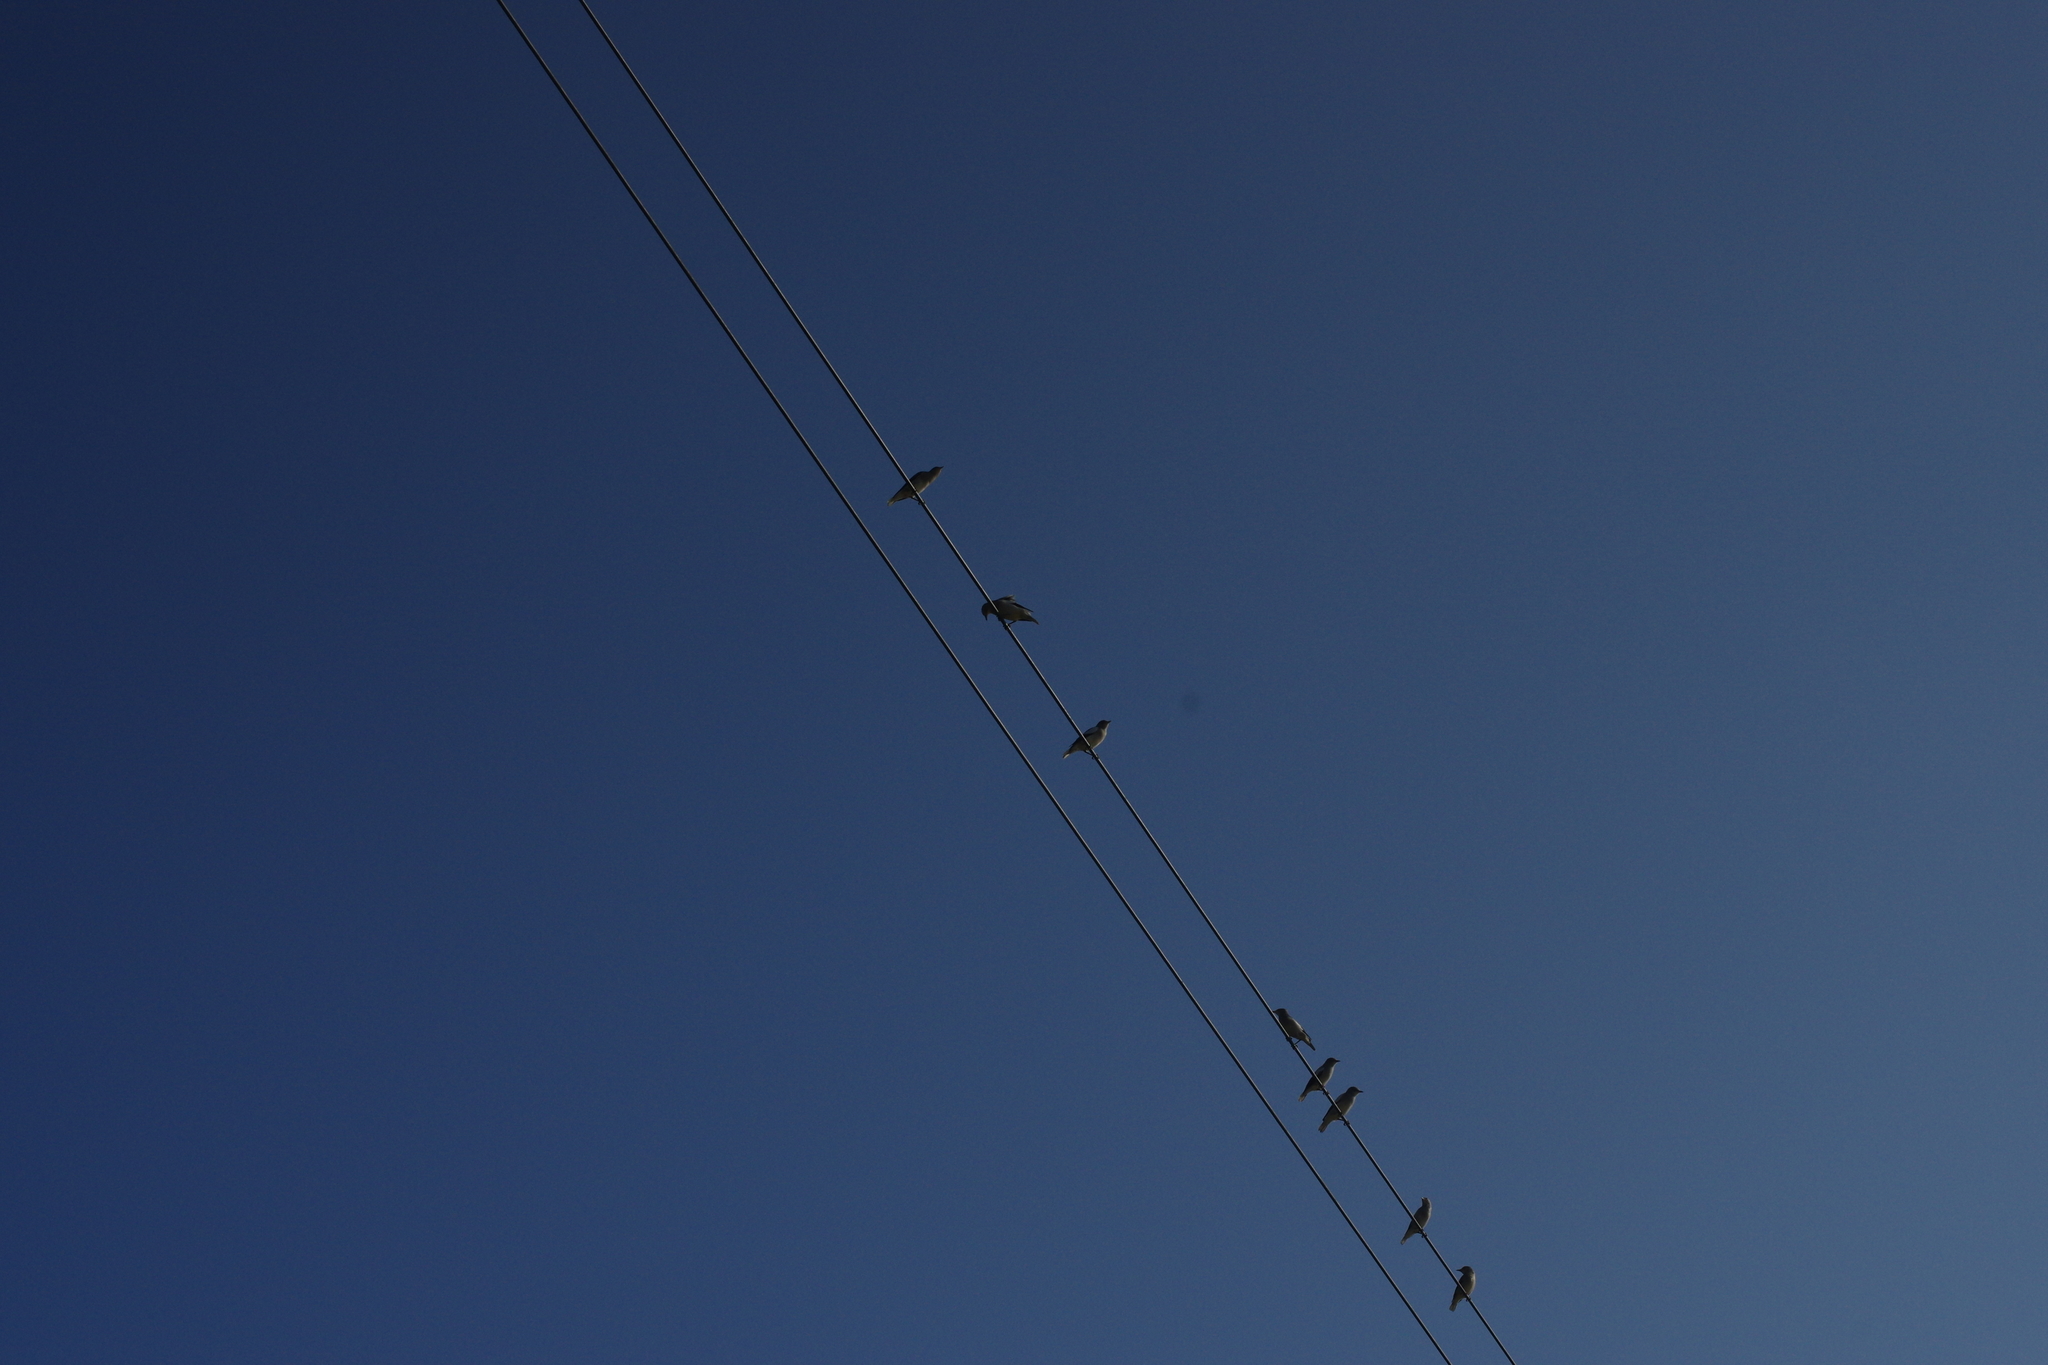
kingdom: Animalia
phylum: Chordata
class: Aves
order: Passeriformes
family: Sturnidae
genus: Spodiopsar
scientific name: Spodiopsar sericeus
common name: Red-billed starling
